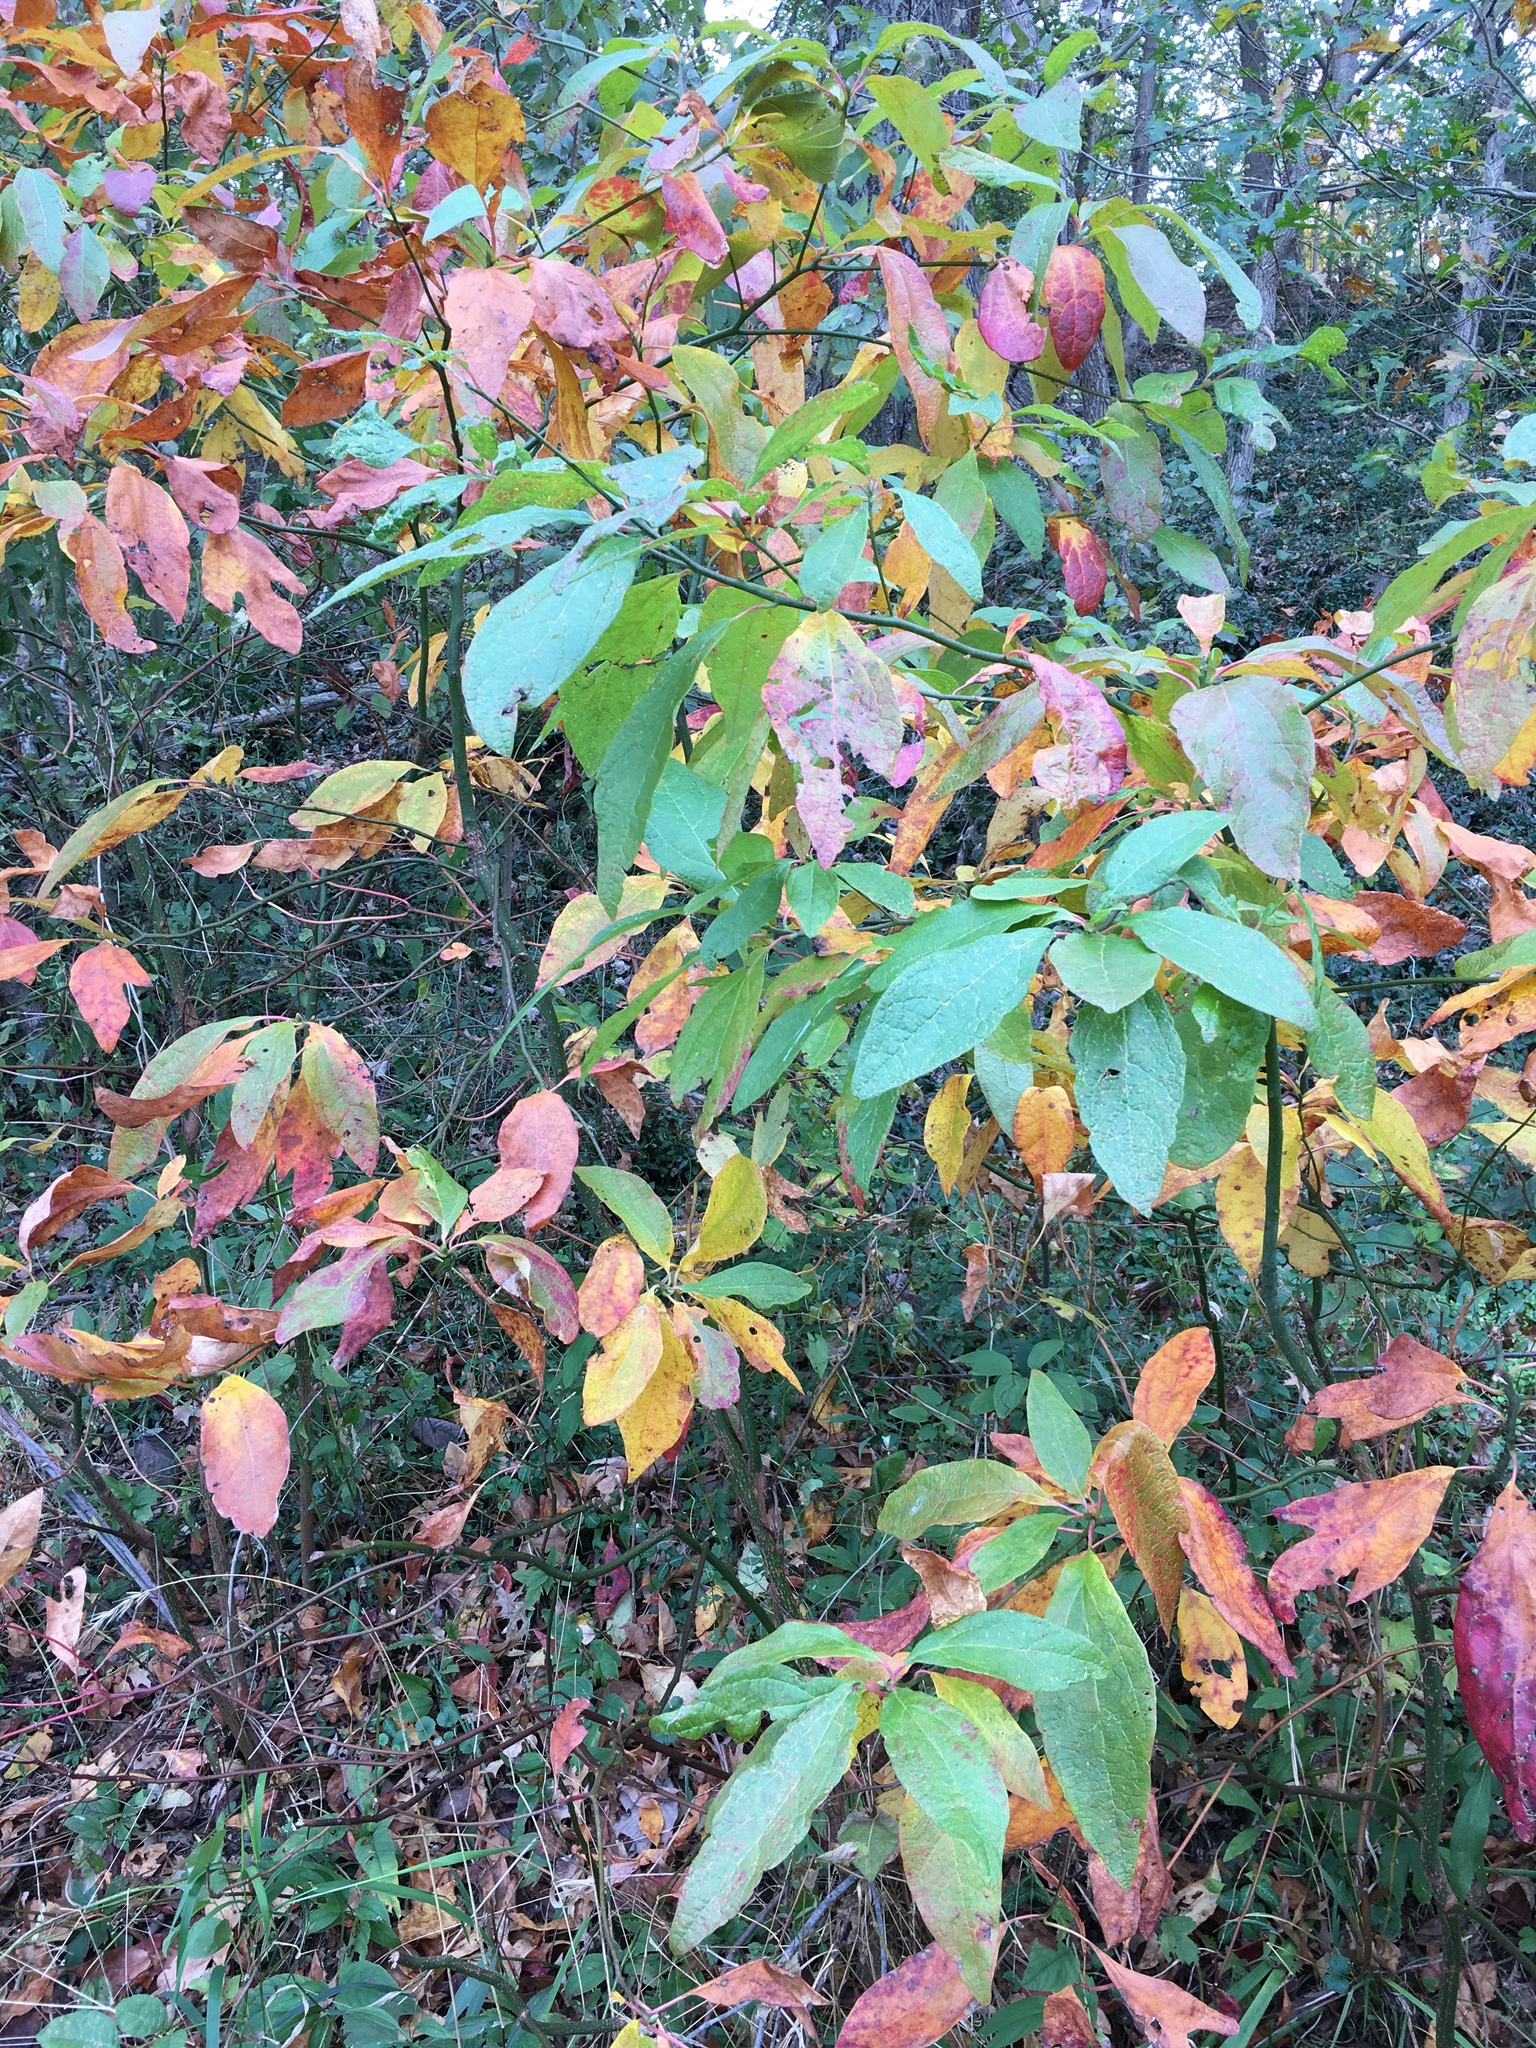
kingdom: Plantae
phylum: Tracheophyta
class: Magnoliopsida
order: Laurales
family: Lauraceae
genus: Sassafras
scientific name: Sassafras albidum
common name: Sassafras
